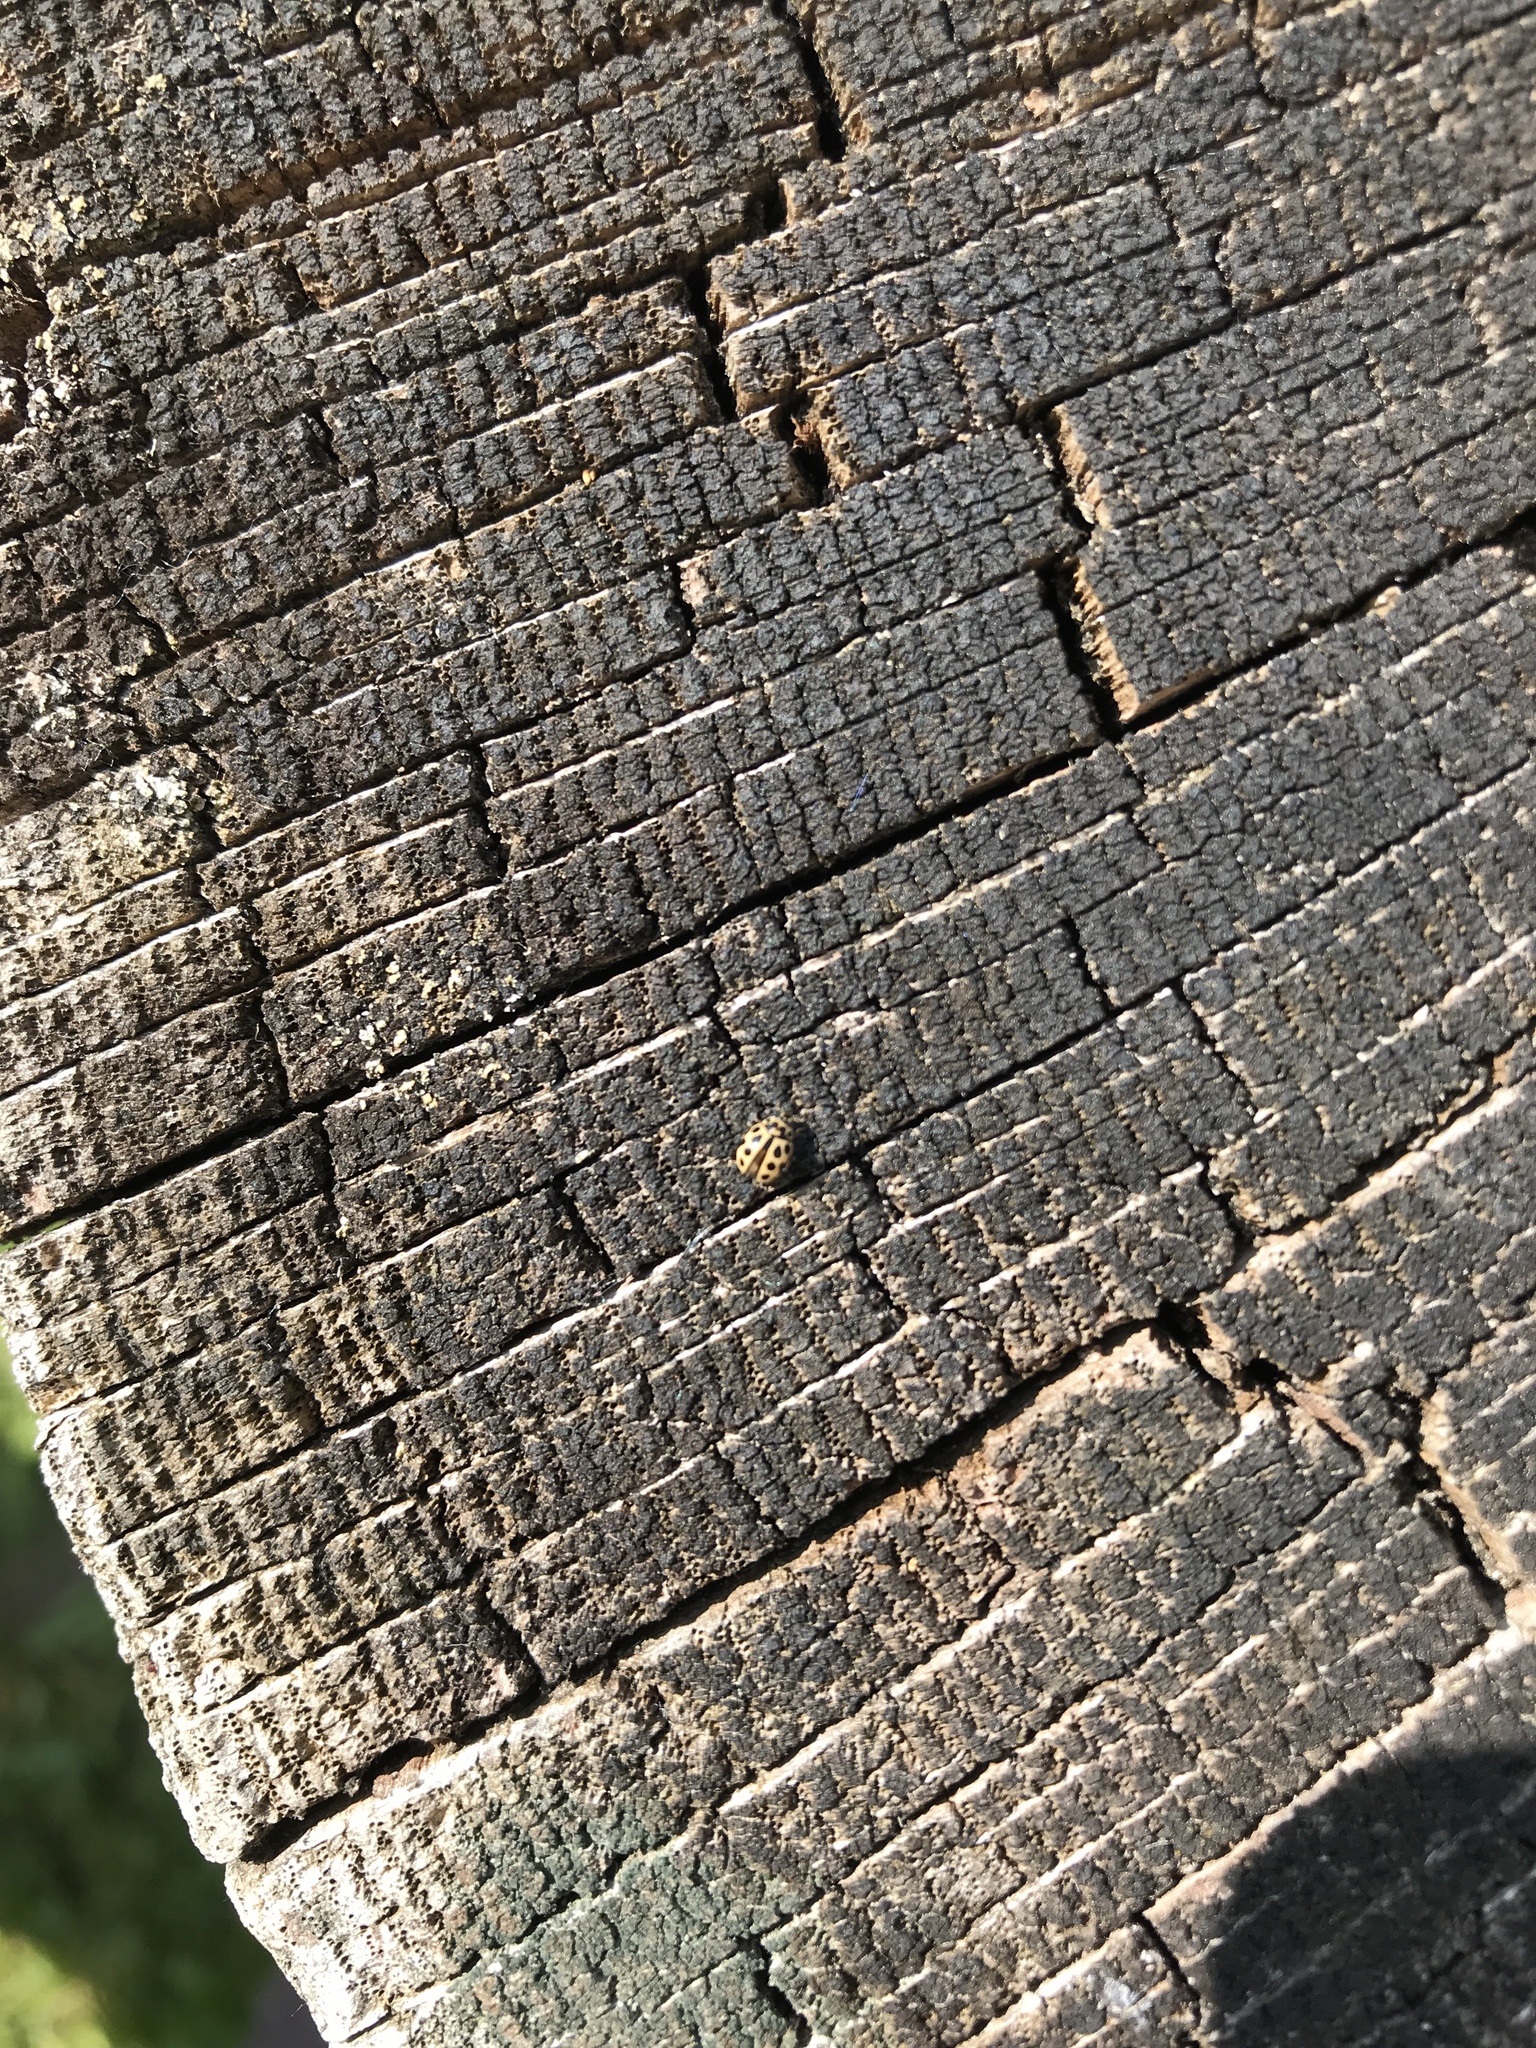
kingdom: Animalia
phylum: Arthropoda
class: Insecta
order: Coleoptera
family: Coccinellidae
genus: Tytthaspis
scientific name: Tytthaspis sedecimpunctata
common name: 16-spot ladybird
